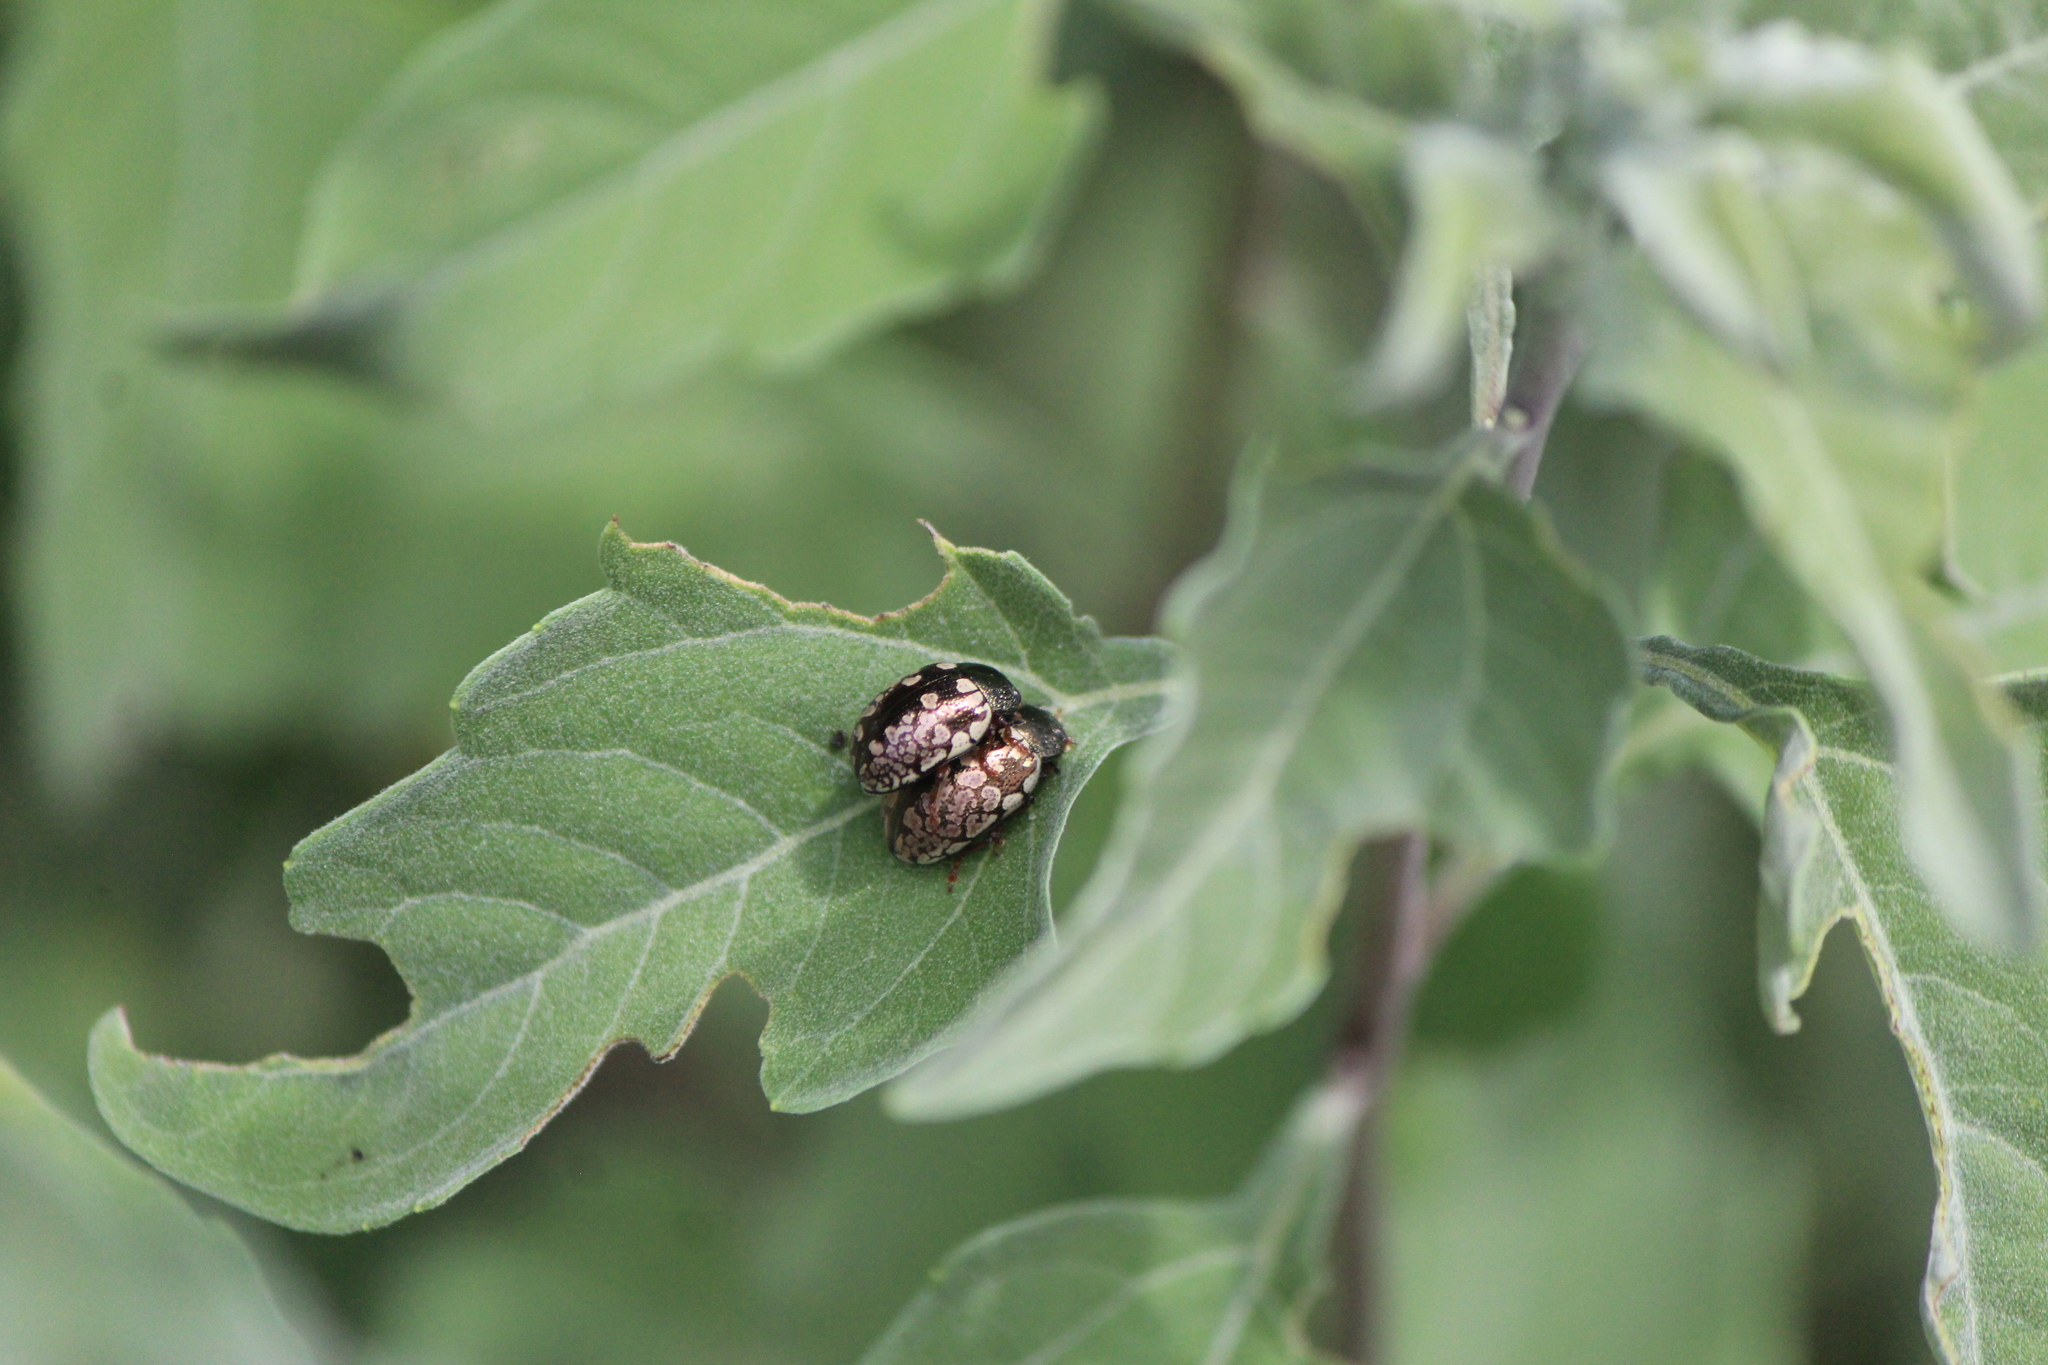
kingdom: Animalia
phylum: Arthropoda
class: Insecta
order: Coleoptera
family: Chrysomelidae
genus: Calligrapha
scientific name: Calligrapha barda
